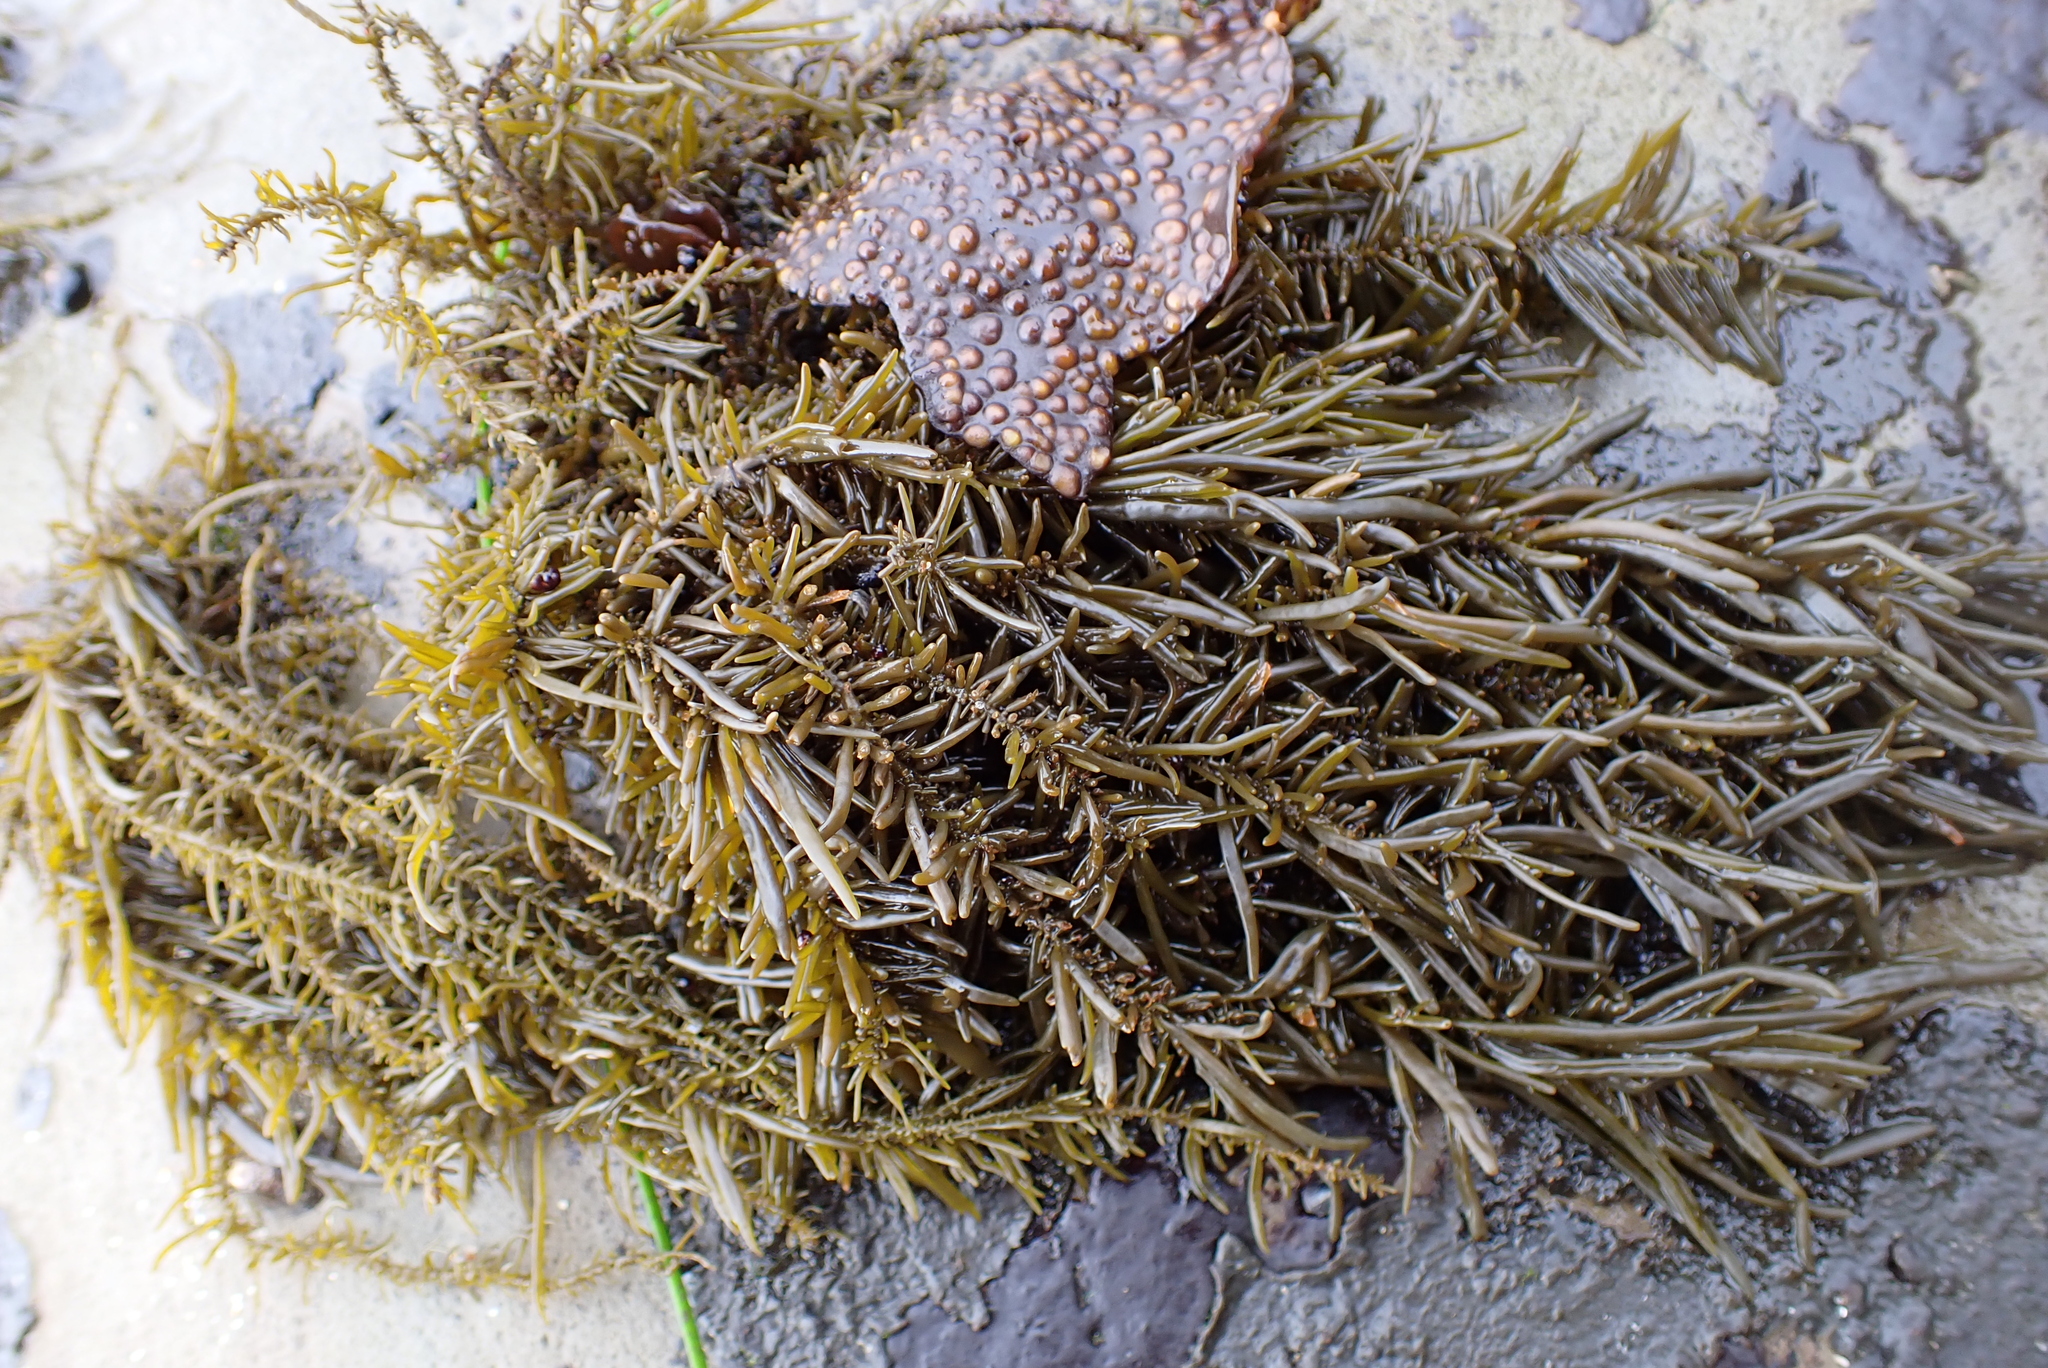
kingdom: Chromista
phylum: Ochrophyta
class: Phaeophyceae
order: Scytosiphonales
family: Scytosiphonaceae
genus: Analipus
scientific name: Analipus japonicus
